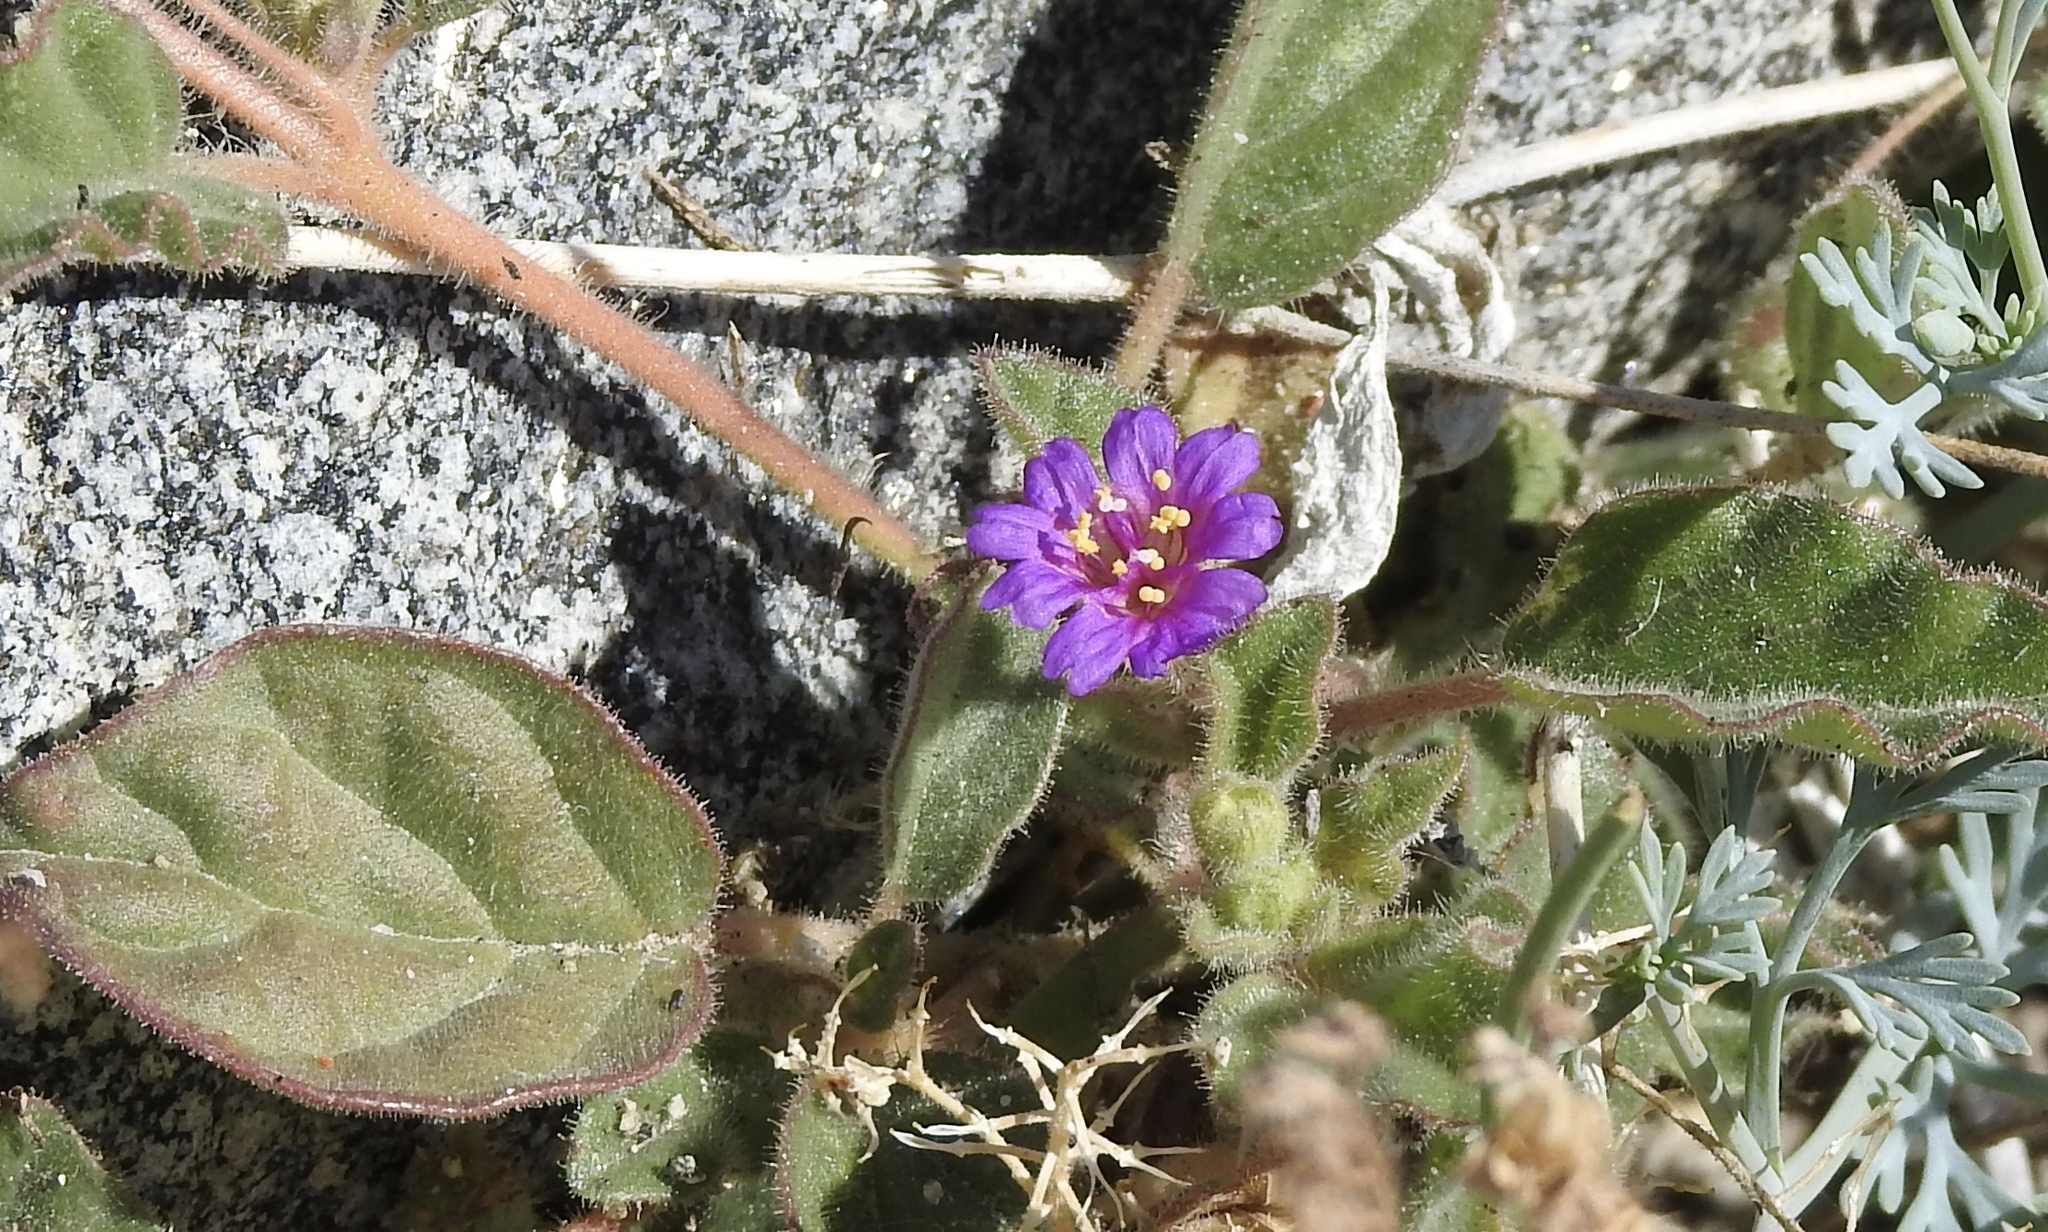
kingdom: Plantae
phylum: Tracheophyta
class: Magnoliopsida
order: Caryophyllales
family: Nyctaginaceae
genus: Allionia
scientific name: Allionia incarnata
